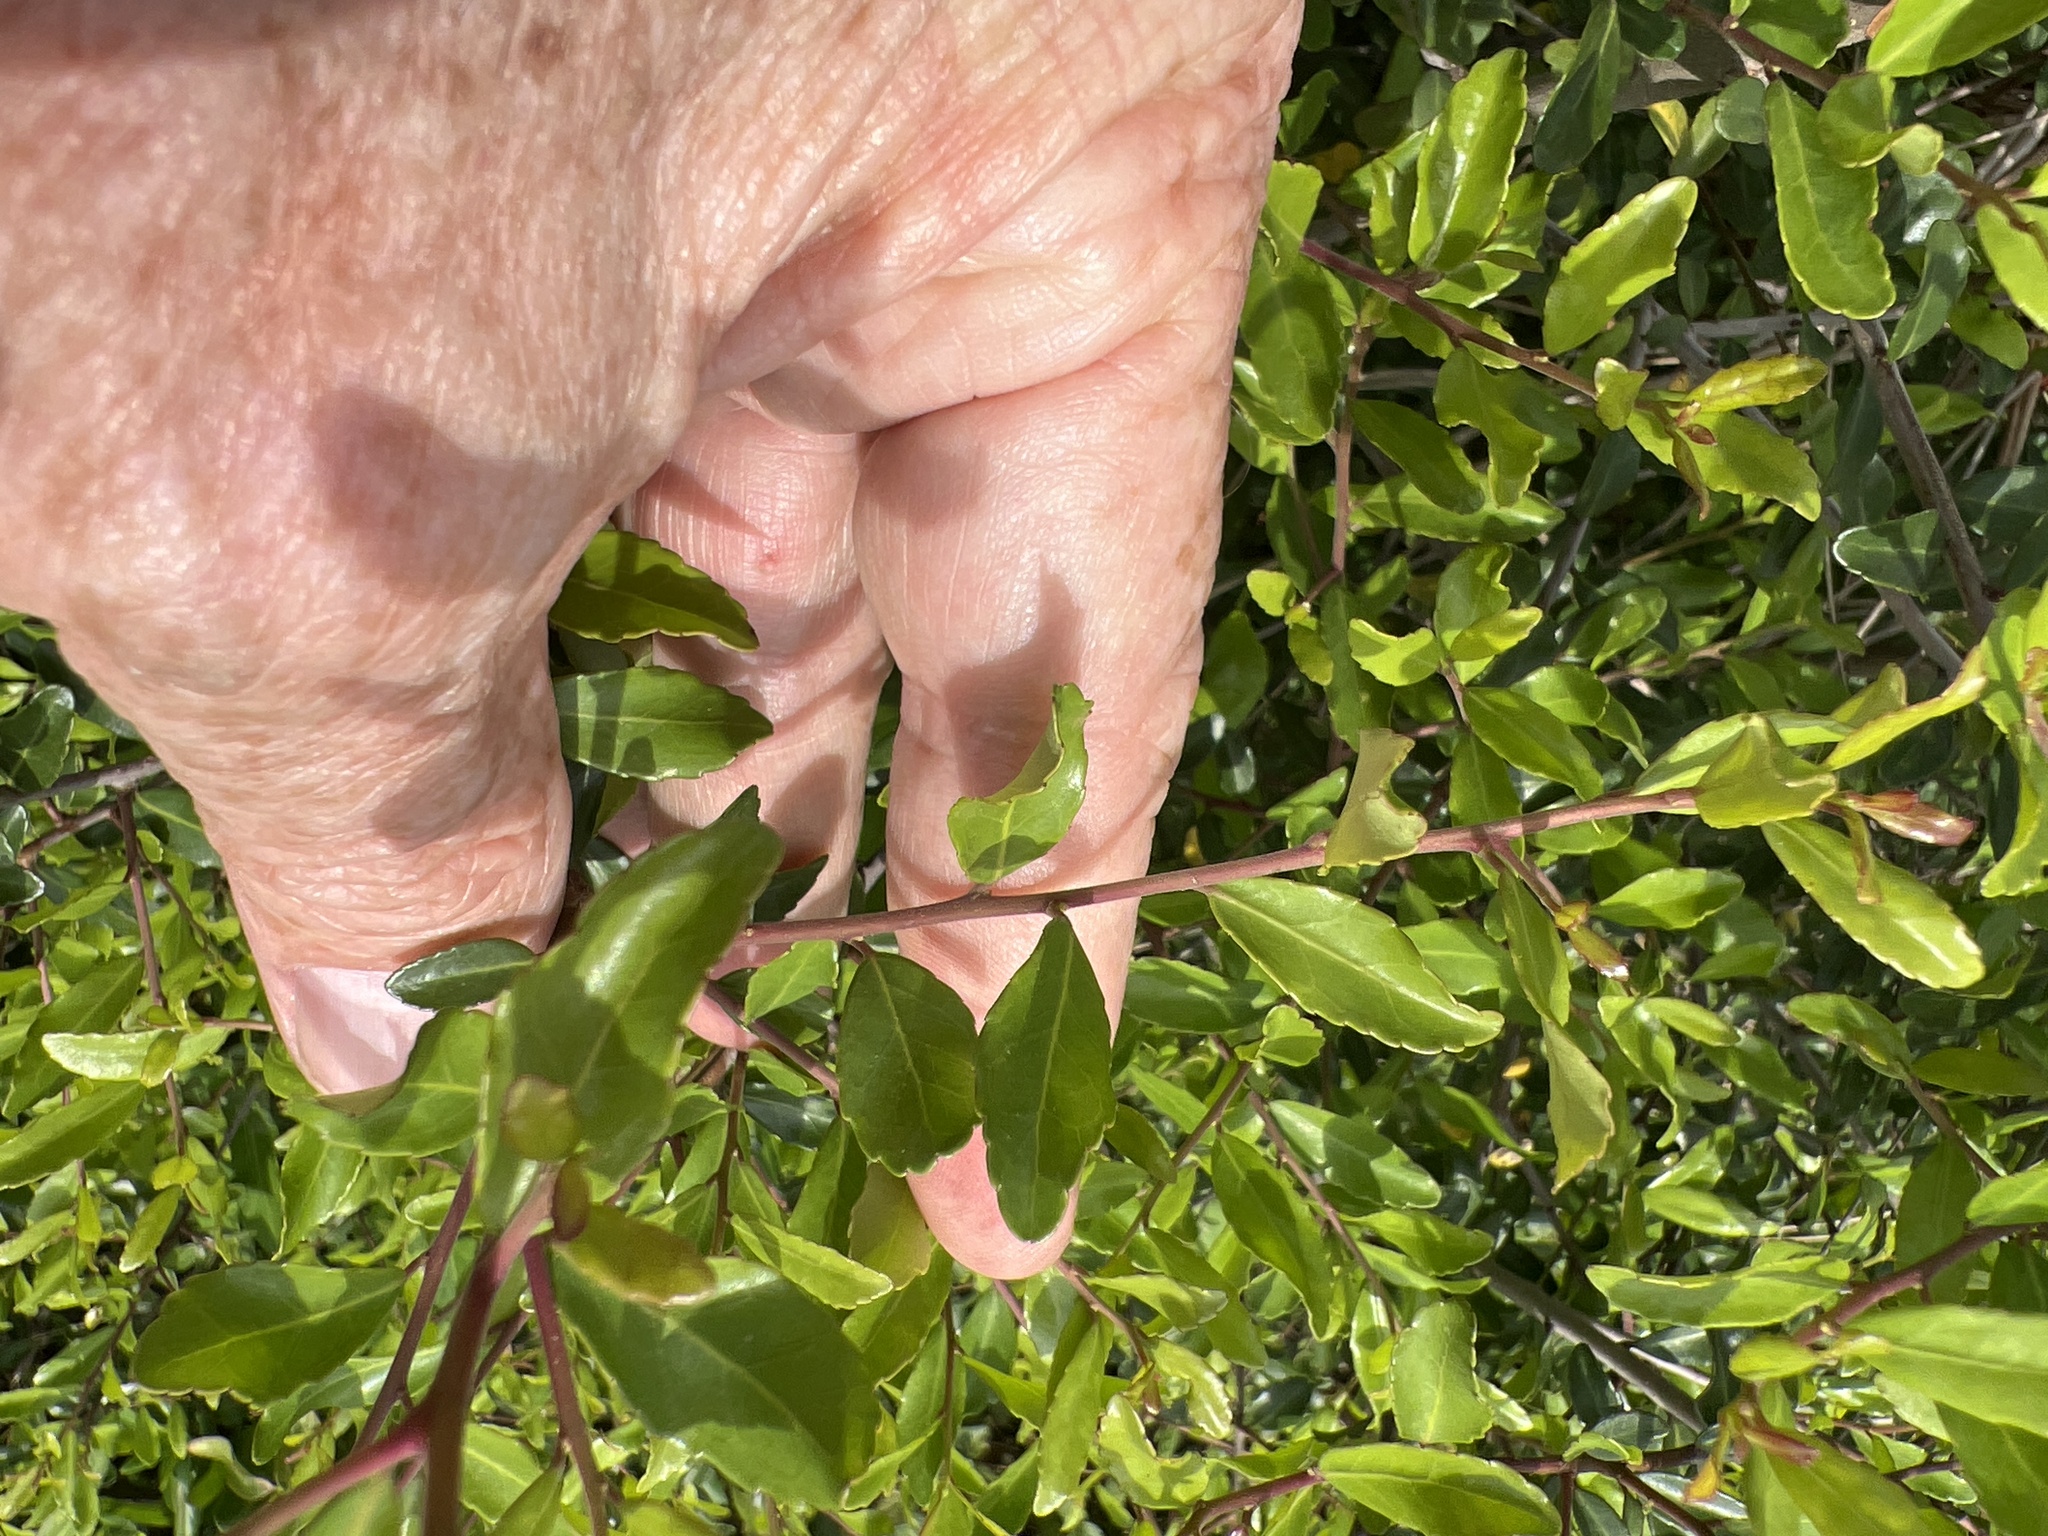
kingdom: Plantae
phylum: Tracheophyta
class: Magnoliopsida
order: Aquifoliales
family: Aquifoliaceae
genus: Ilex
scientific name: Ilex vomitoria
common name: Yaupon holly
